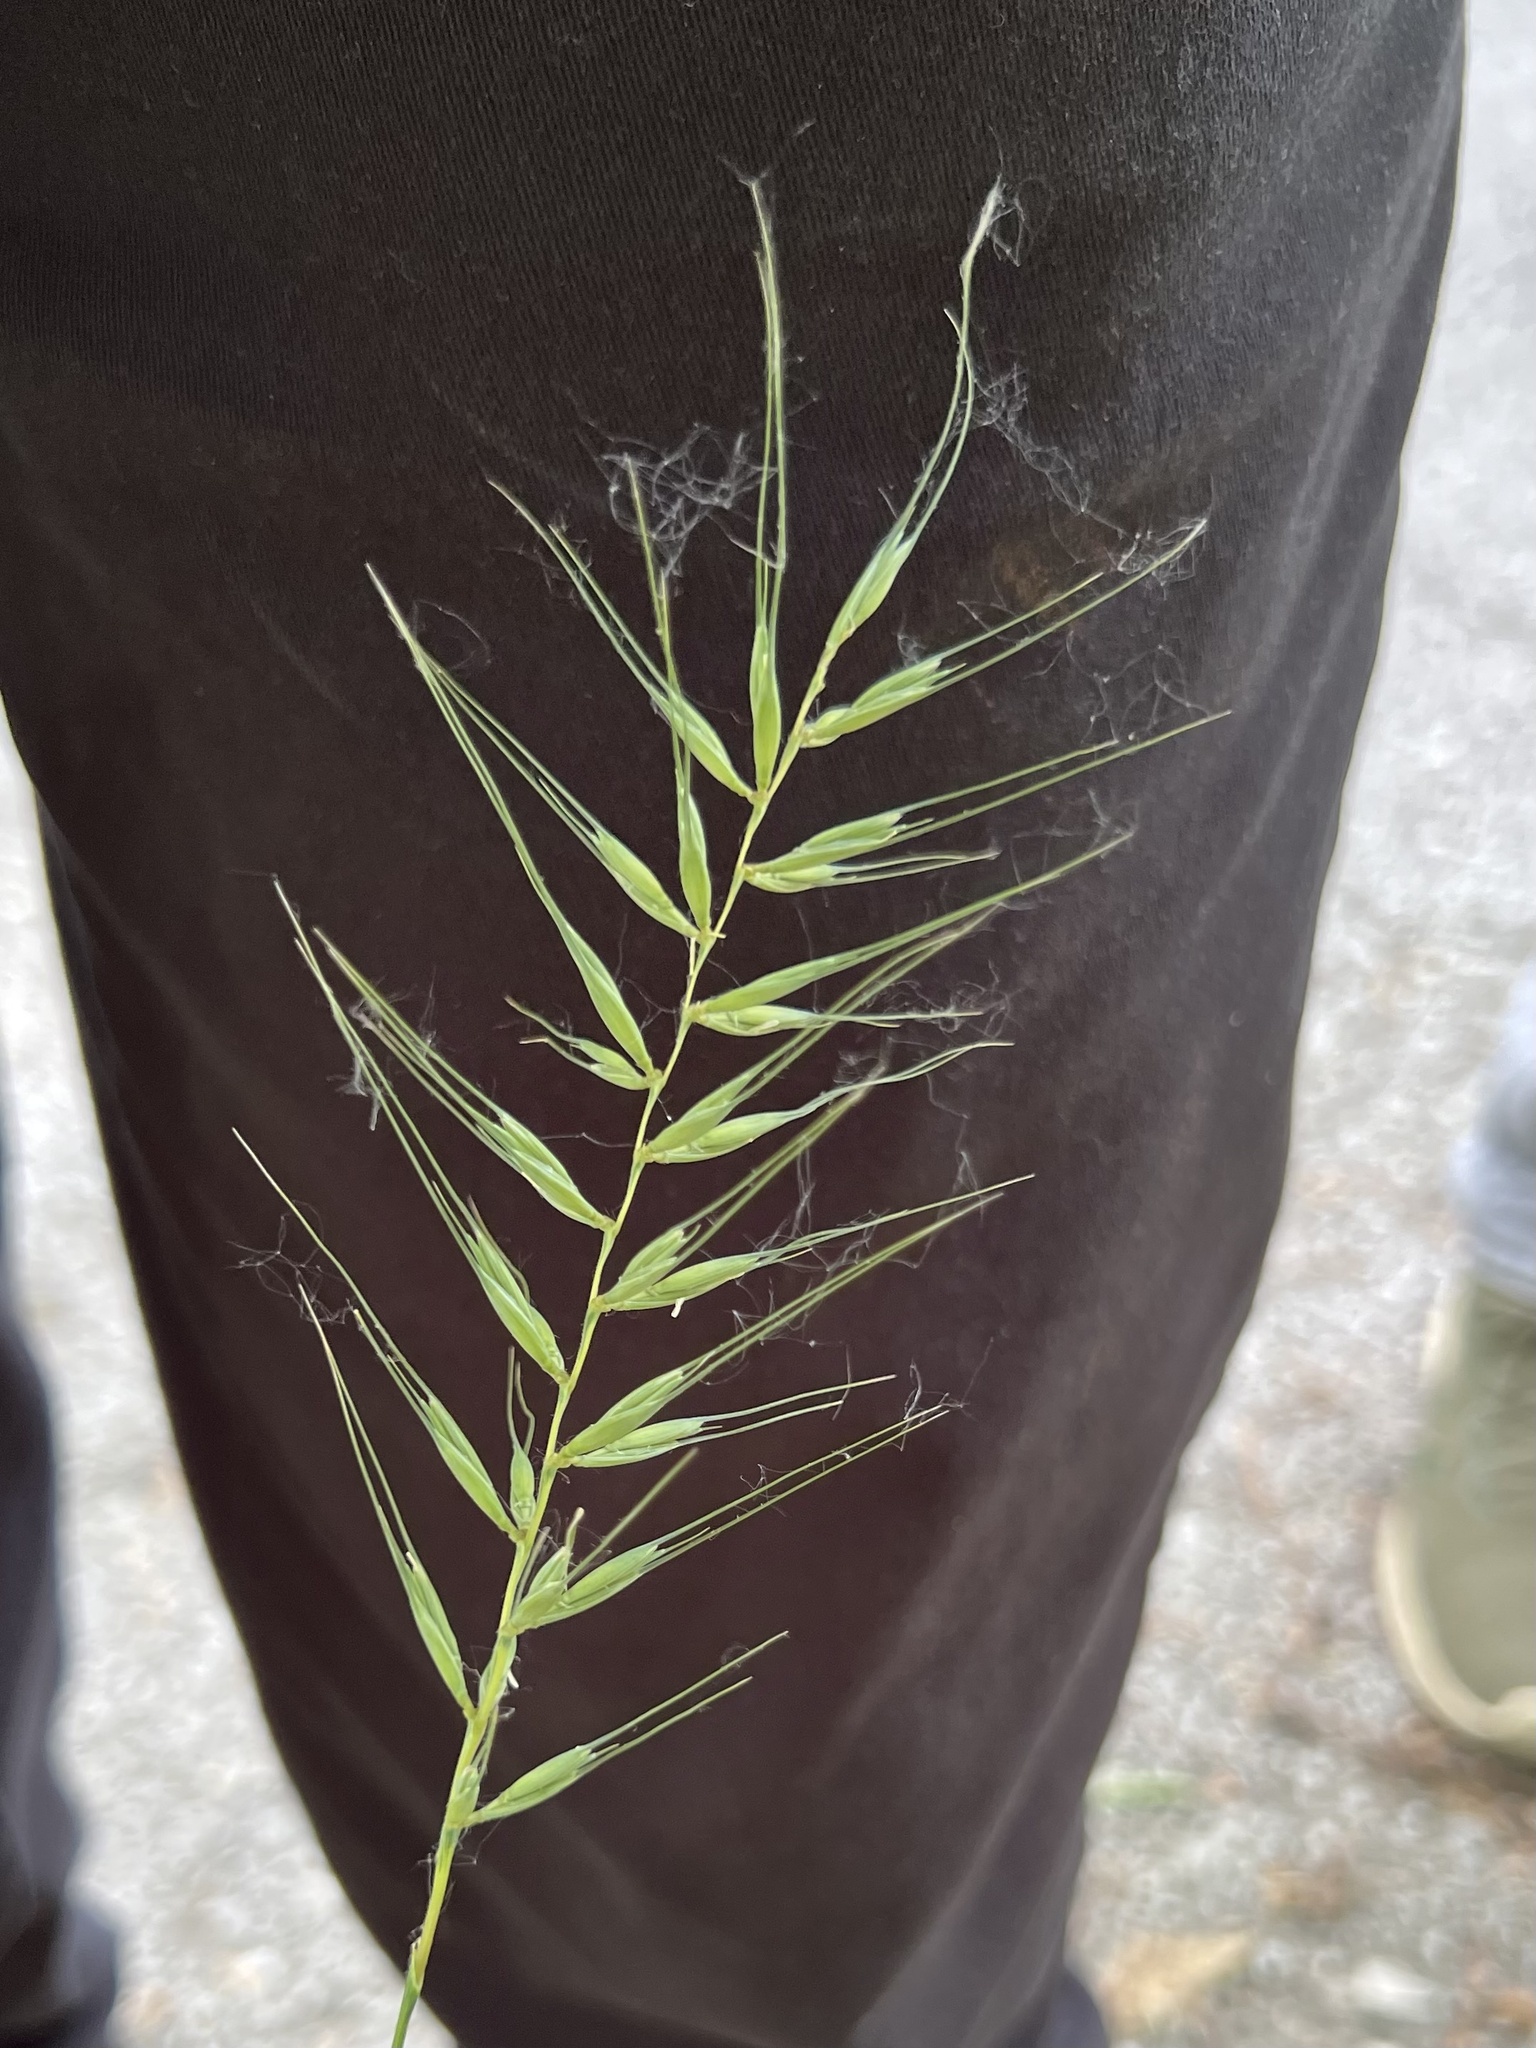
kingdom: Plantae
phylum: Tracheophyta
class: Liliopsida
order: Poales
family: Poaceae
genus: Elymus
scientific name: Elymus hystrix
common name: Bottlebrush grass
